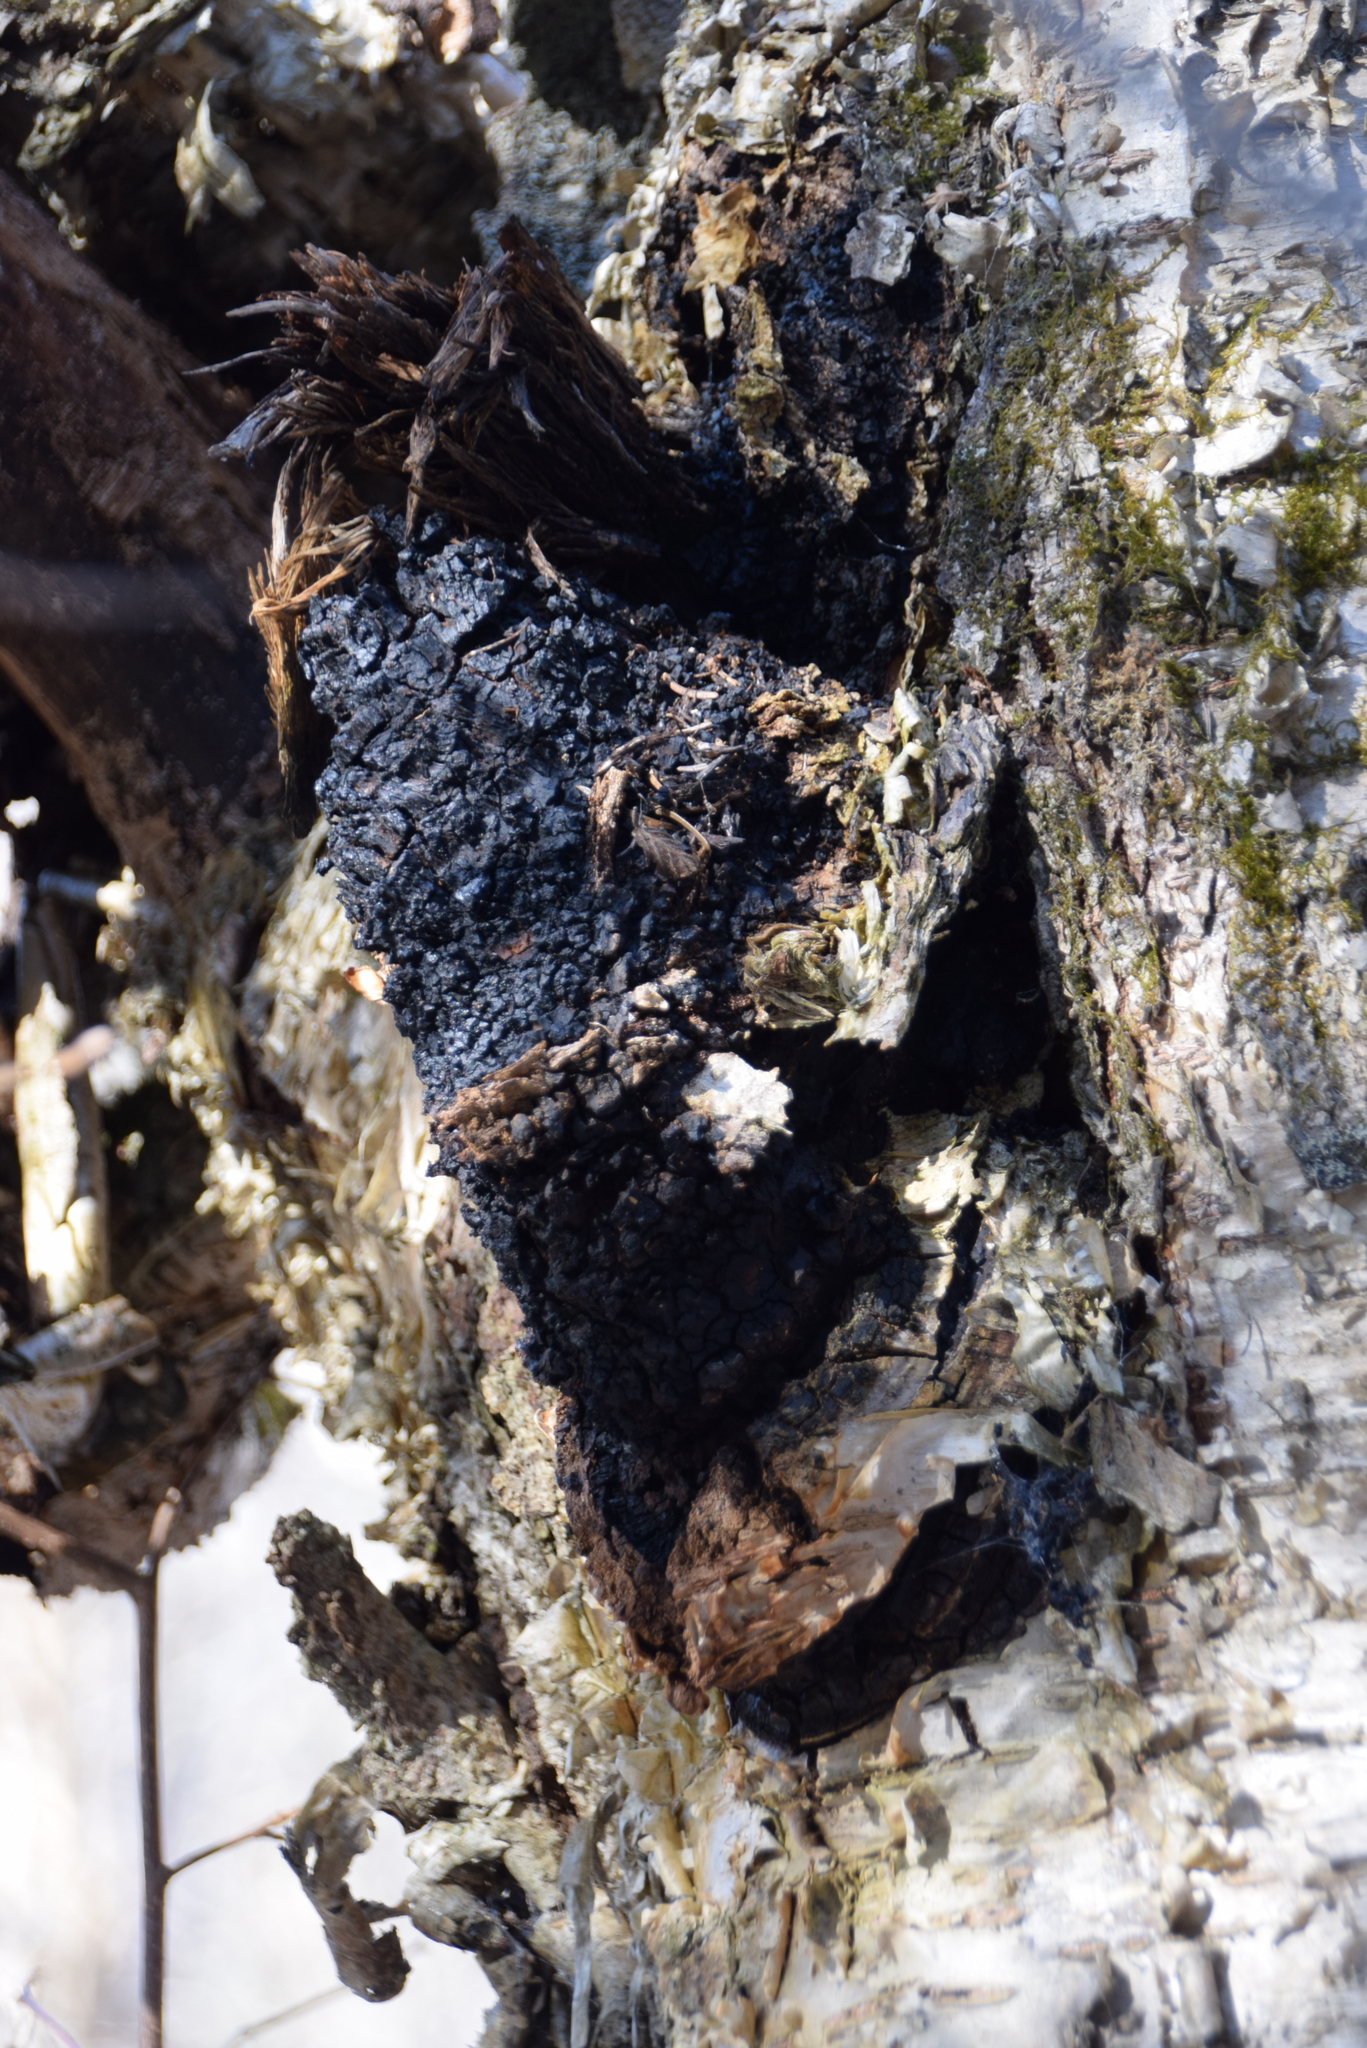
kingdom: Fungi
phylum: Basidiomycota
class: Agaricomycetes
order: Hymenochaetales
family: Hymenochaetaceae
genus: Inonotus
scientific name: Inonotus obliquus
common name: Chaga
